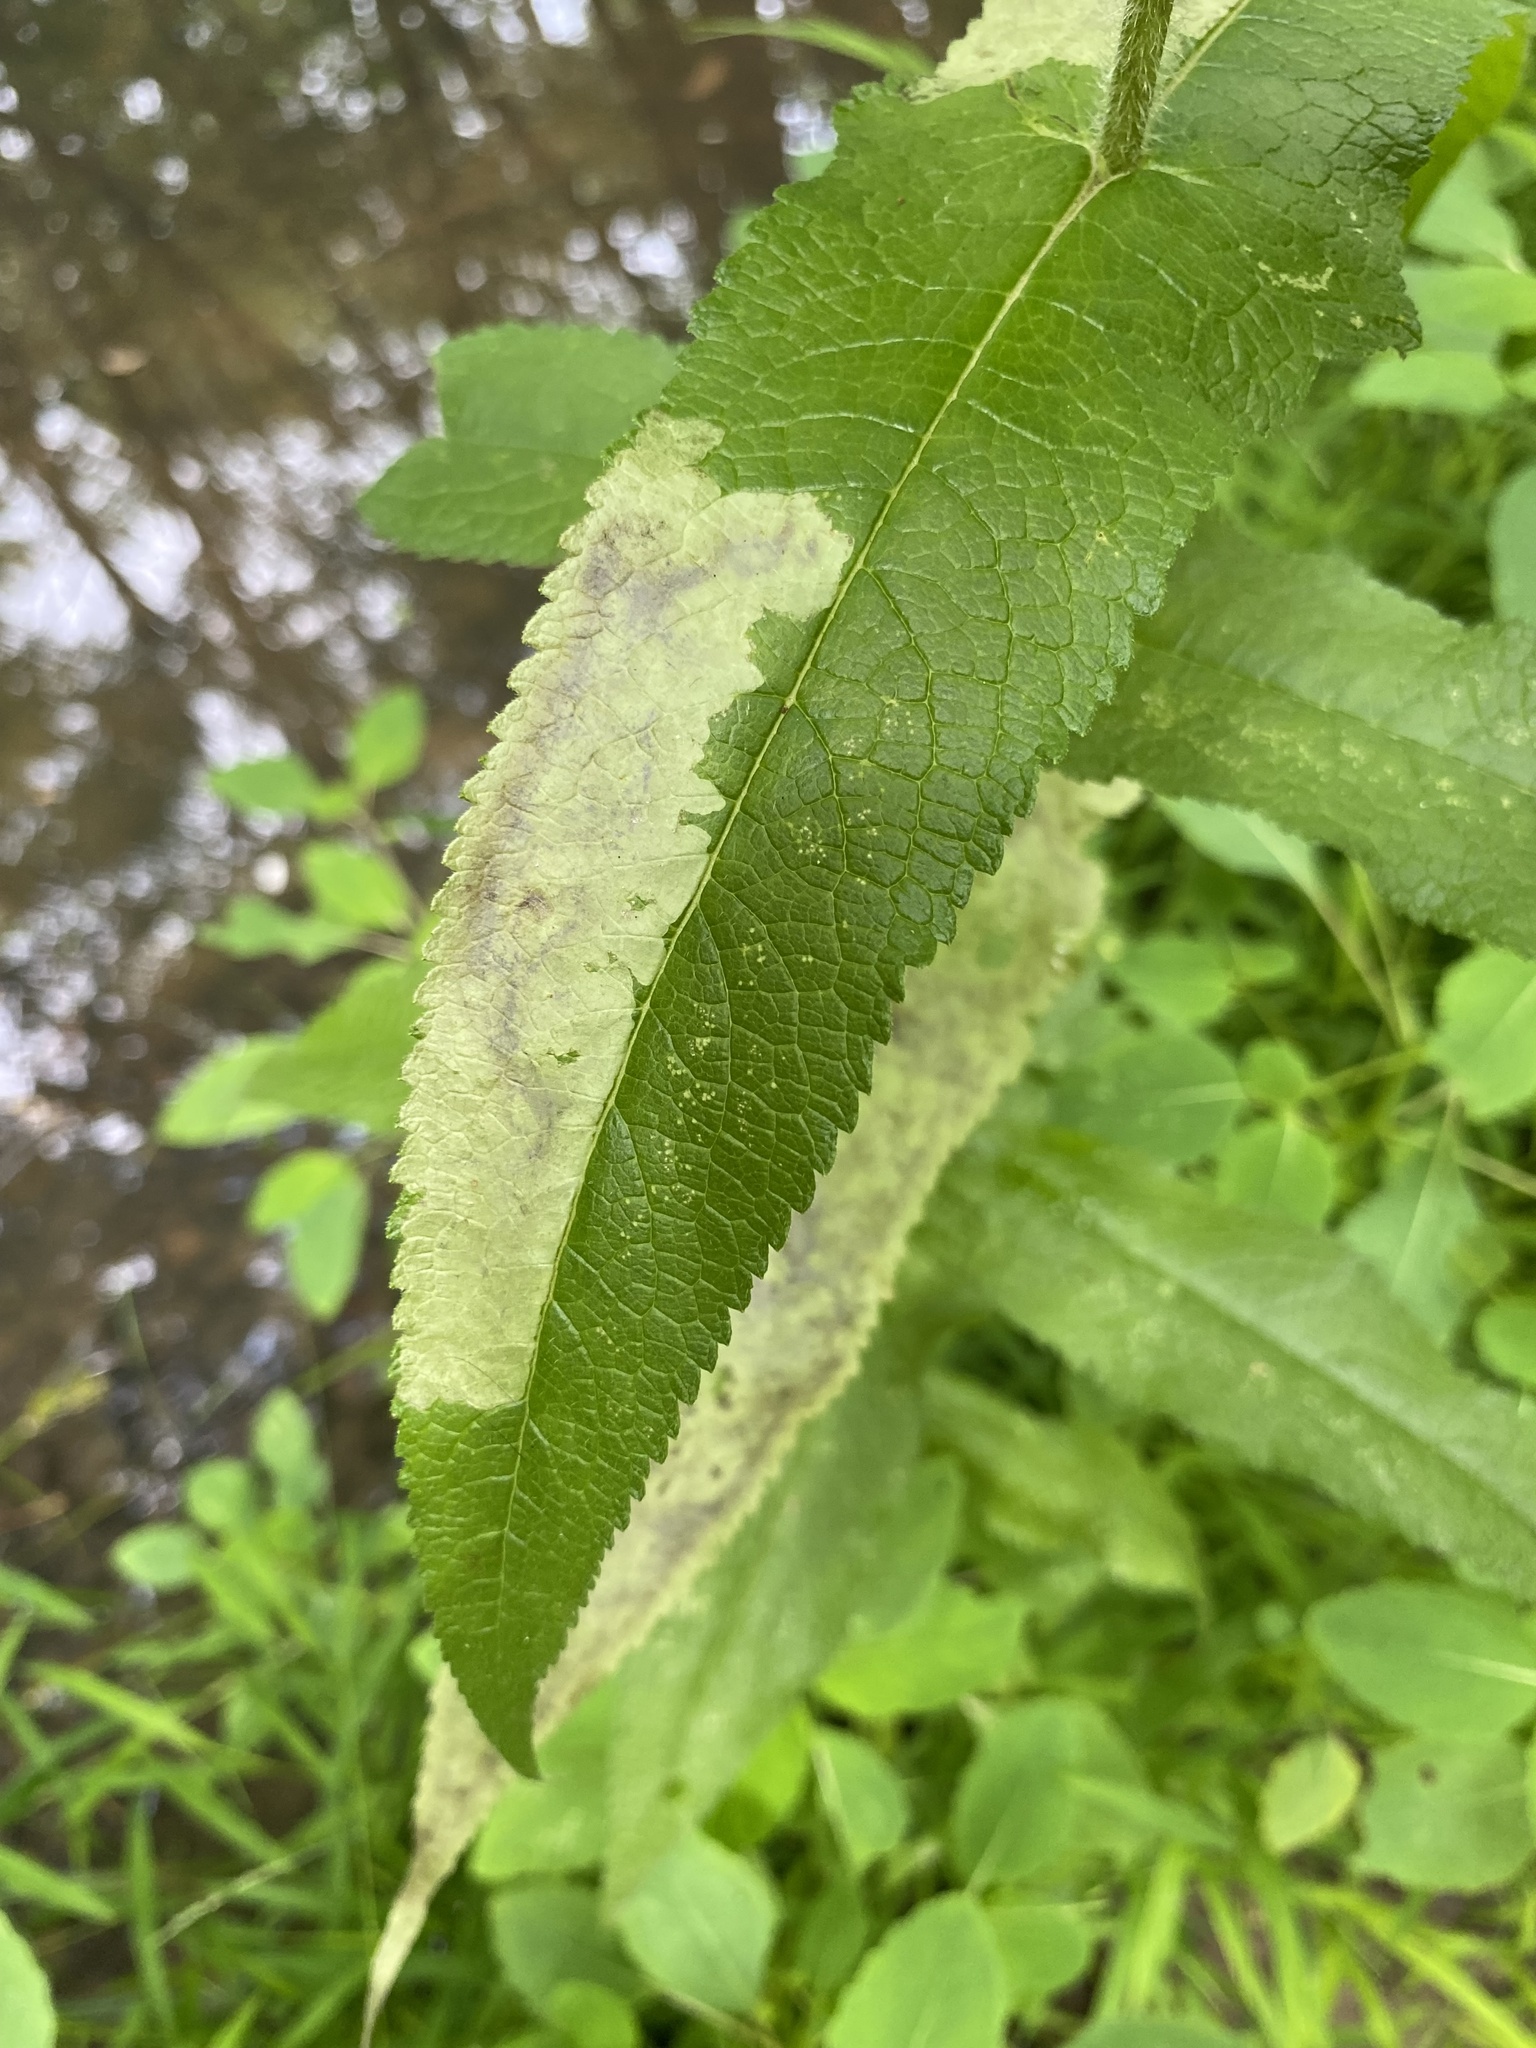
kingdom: Animalia
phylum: Arthropoda
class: Insecta
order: Diptera
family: Agromyzidae
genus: Calycomyza
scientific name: Calycomyza flavinotum
